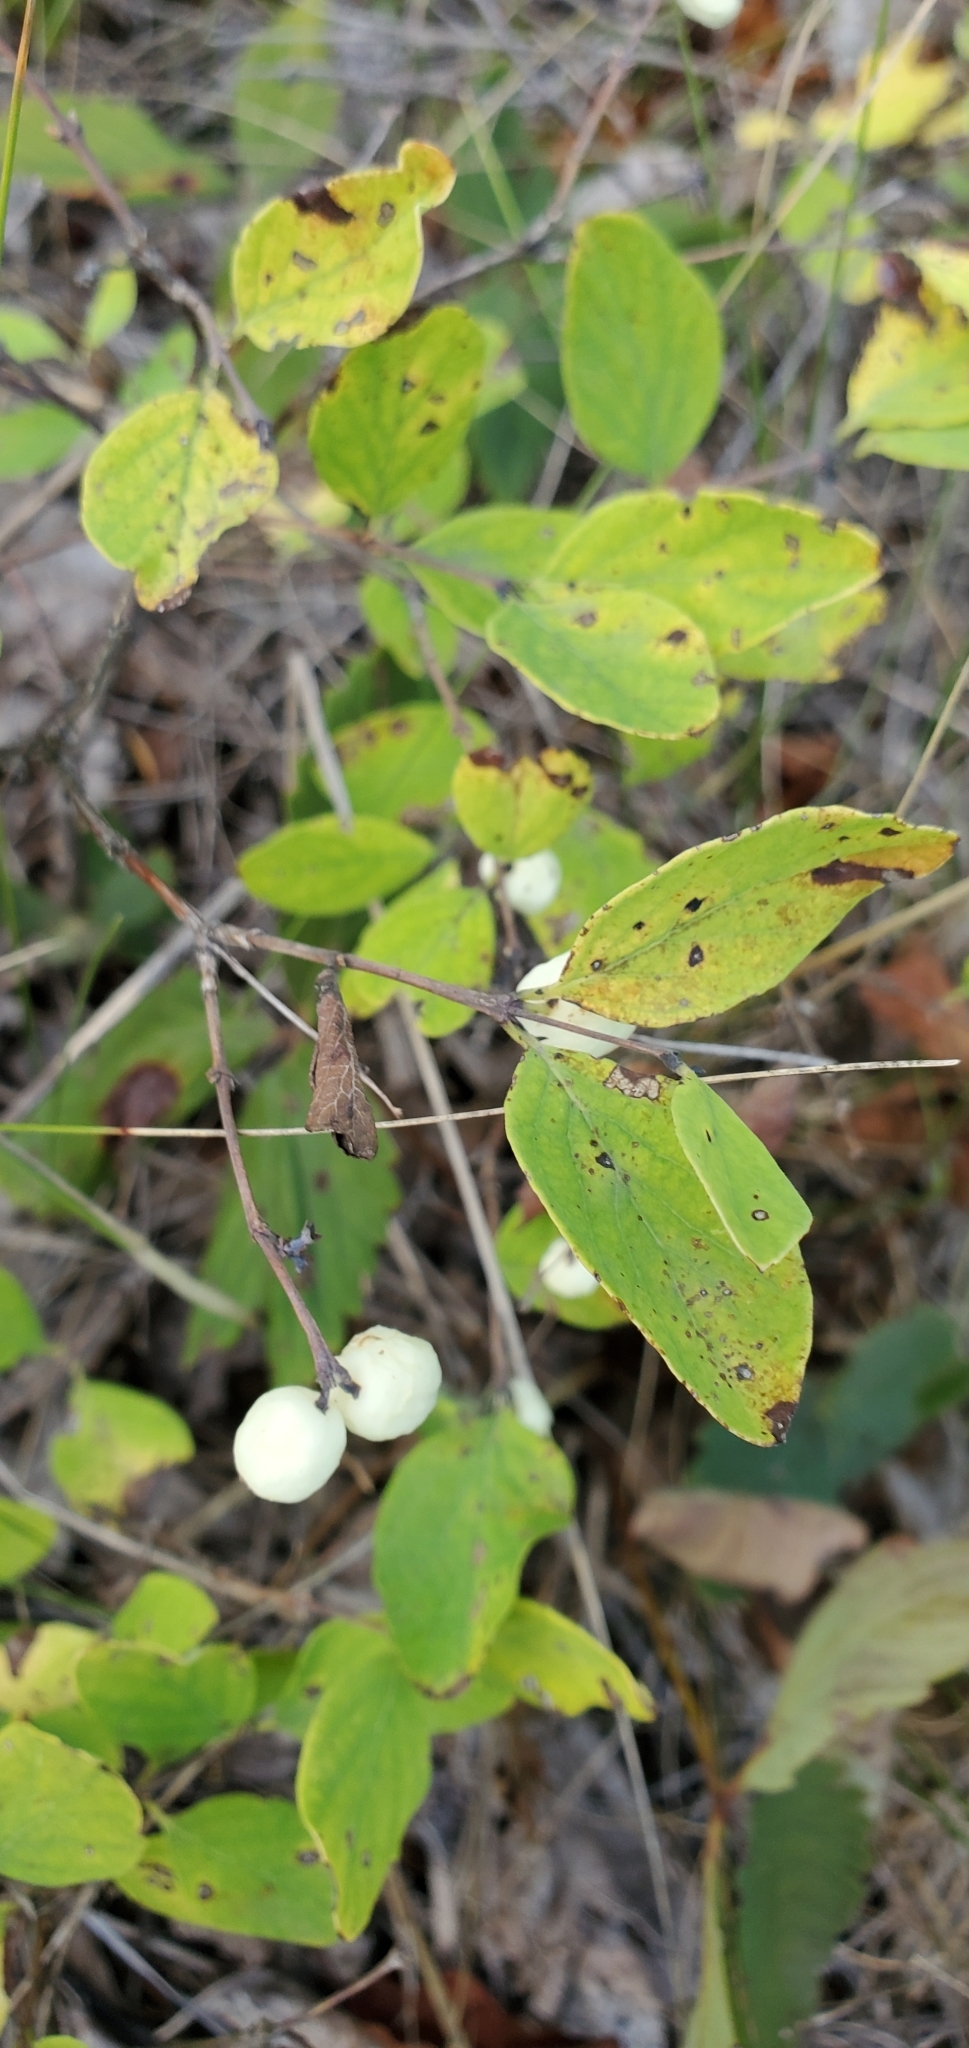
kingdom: Plantae
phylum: Tracheophyta
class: Magnoliopsida
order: Dipsacales
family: Caprifoliaceae
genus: Symphoricarpos
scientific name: Symphoricarpos albus
